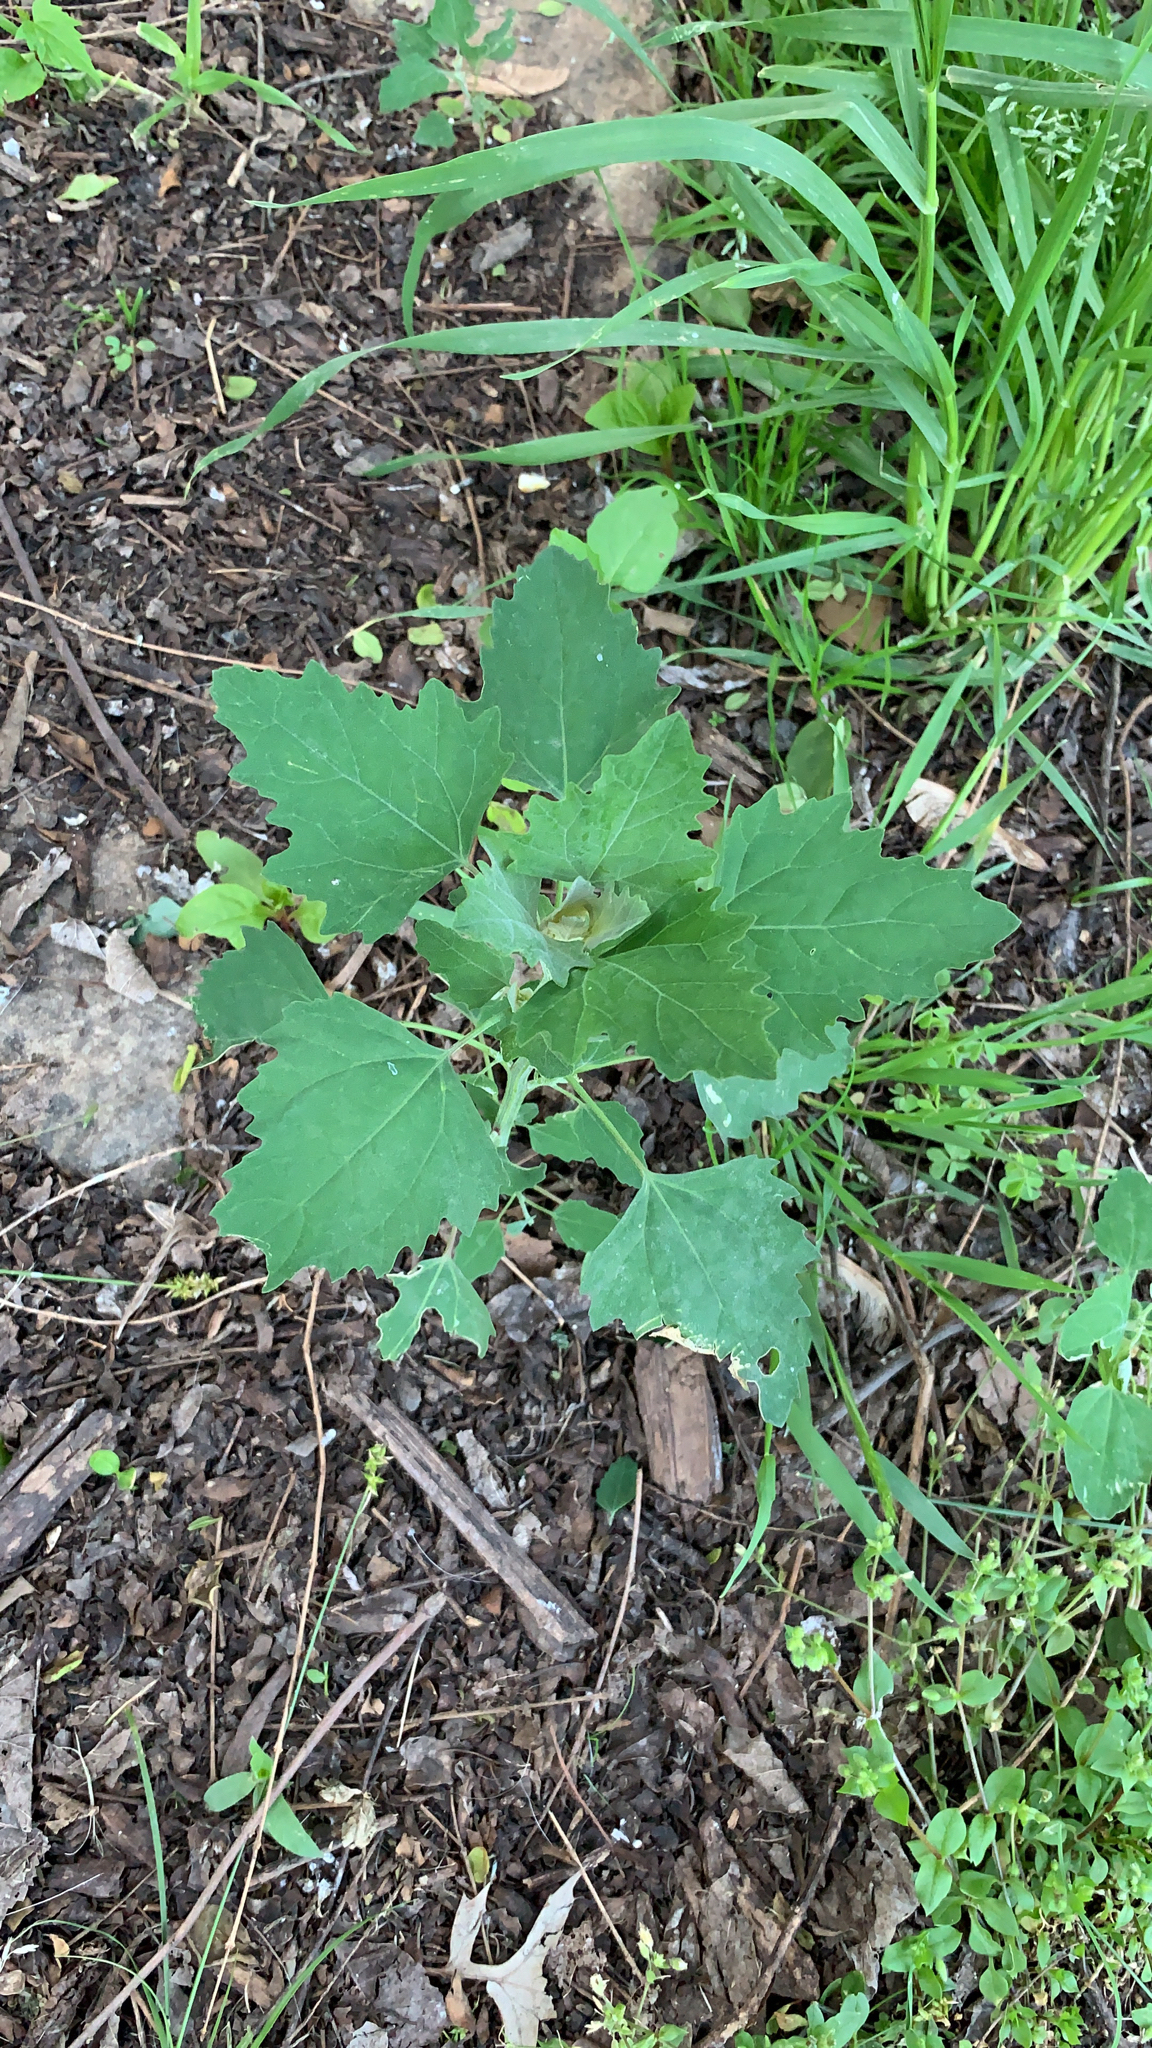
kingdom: Plantae
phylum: Tracheophyta
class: Magnoliopsida
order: Caryophyllales
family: Amaranthaceae
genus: Chenopodium
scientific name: Chenopodium album
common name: Fat-hen
